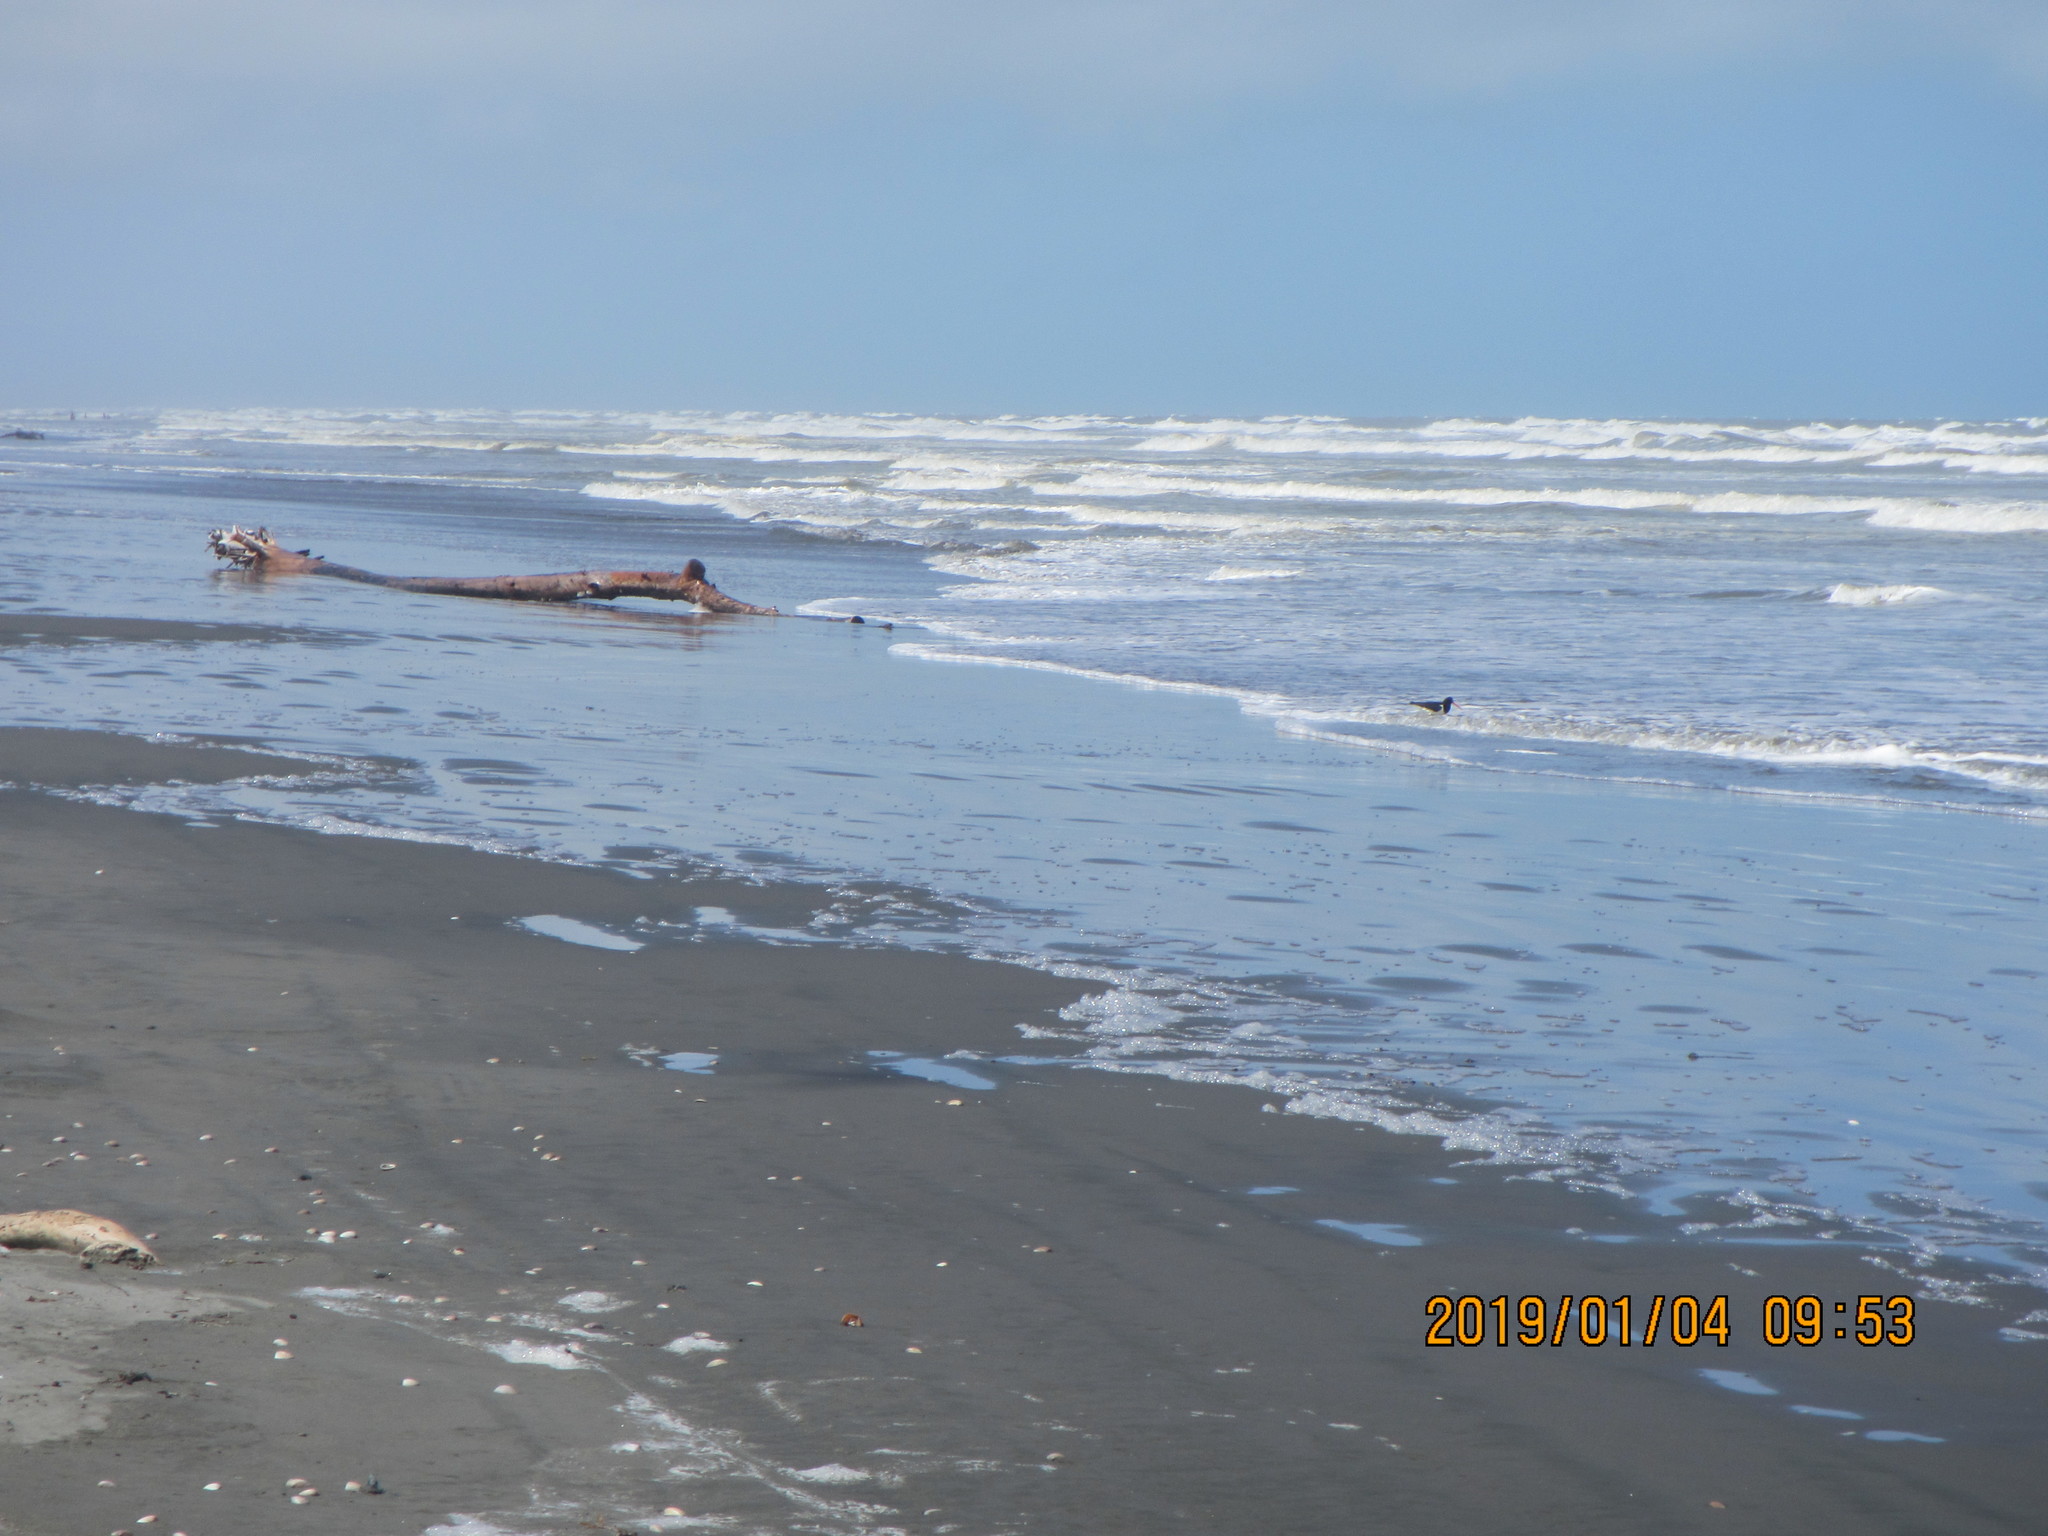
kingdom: Animalia
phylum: Chordata
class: Aves
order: Charadriiformes
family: Haematopodidae
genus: Haematopus
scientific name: Haematopus finschi
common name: South island oystercatcher
